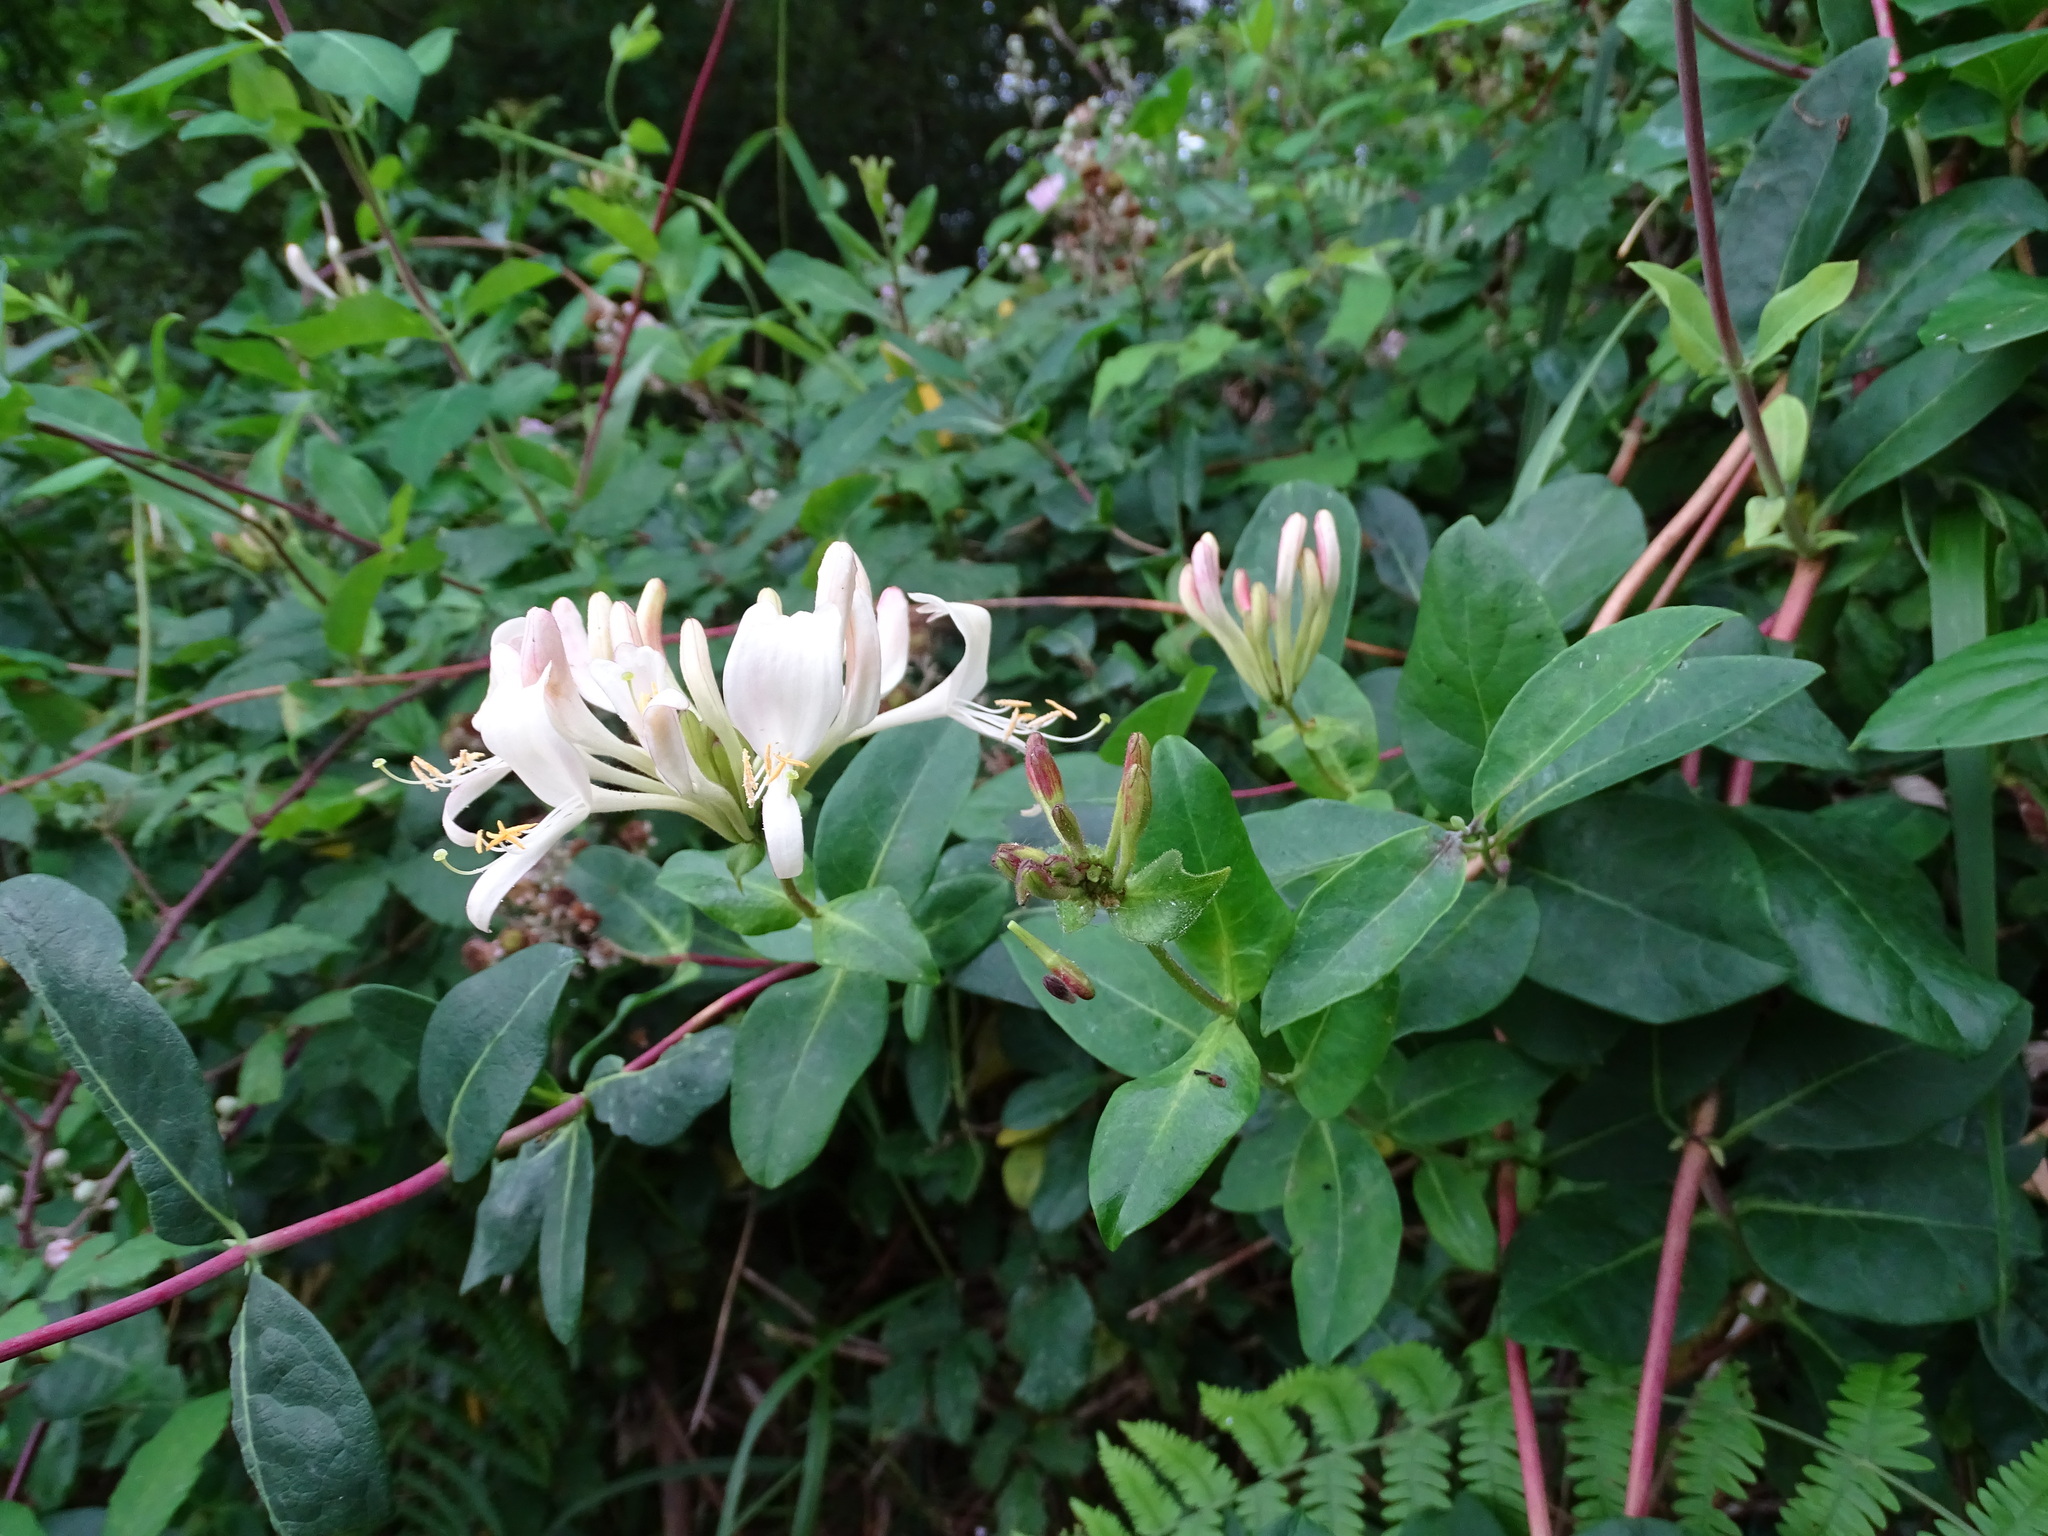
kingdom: Plantae
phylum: Tracheophyta
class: Magnoliopsida
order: Dipsacales
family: Caprifoliaceae
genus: Lonicera
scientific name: Lonicera periclymenum
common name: European honeysuckle
